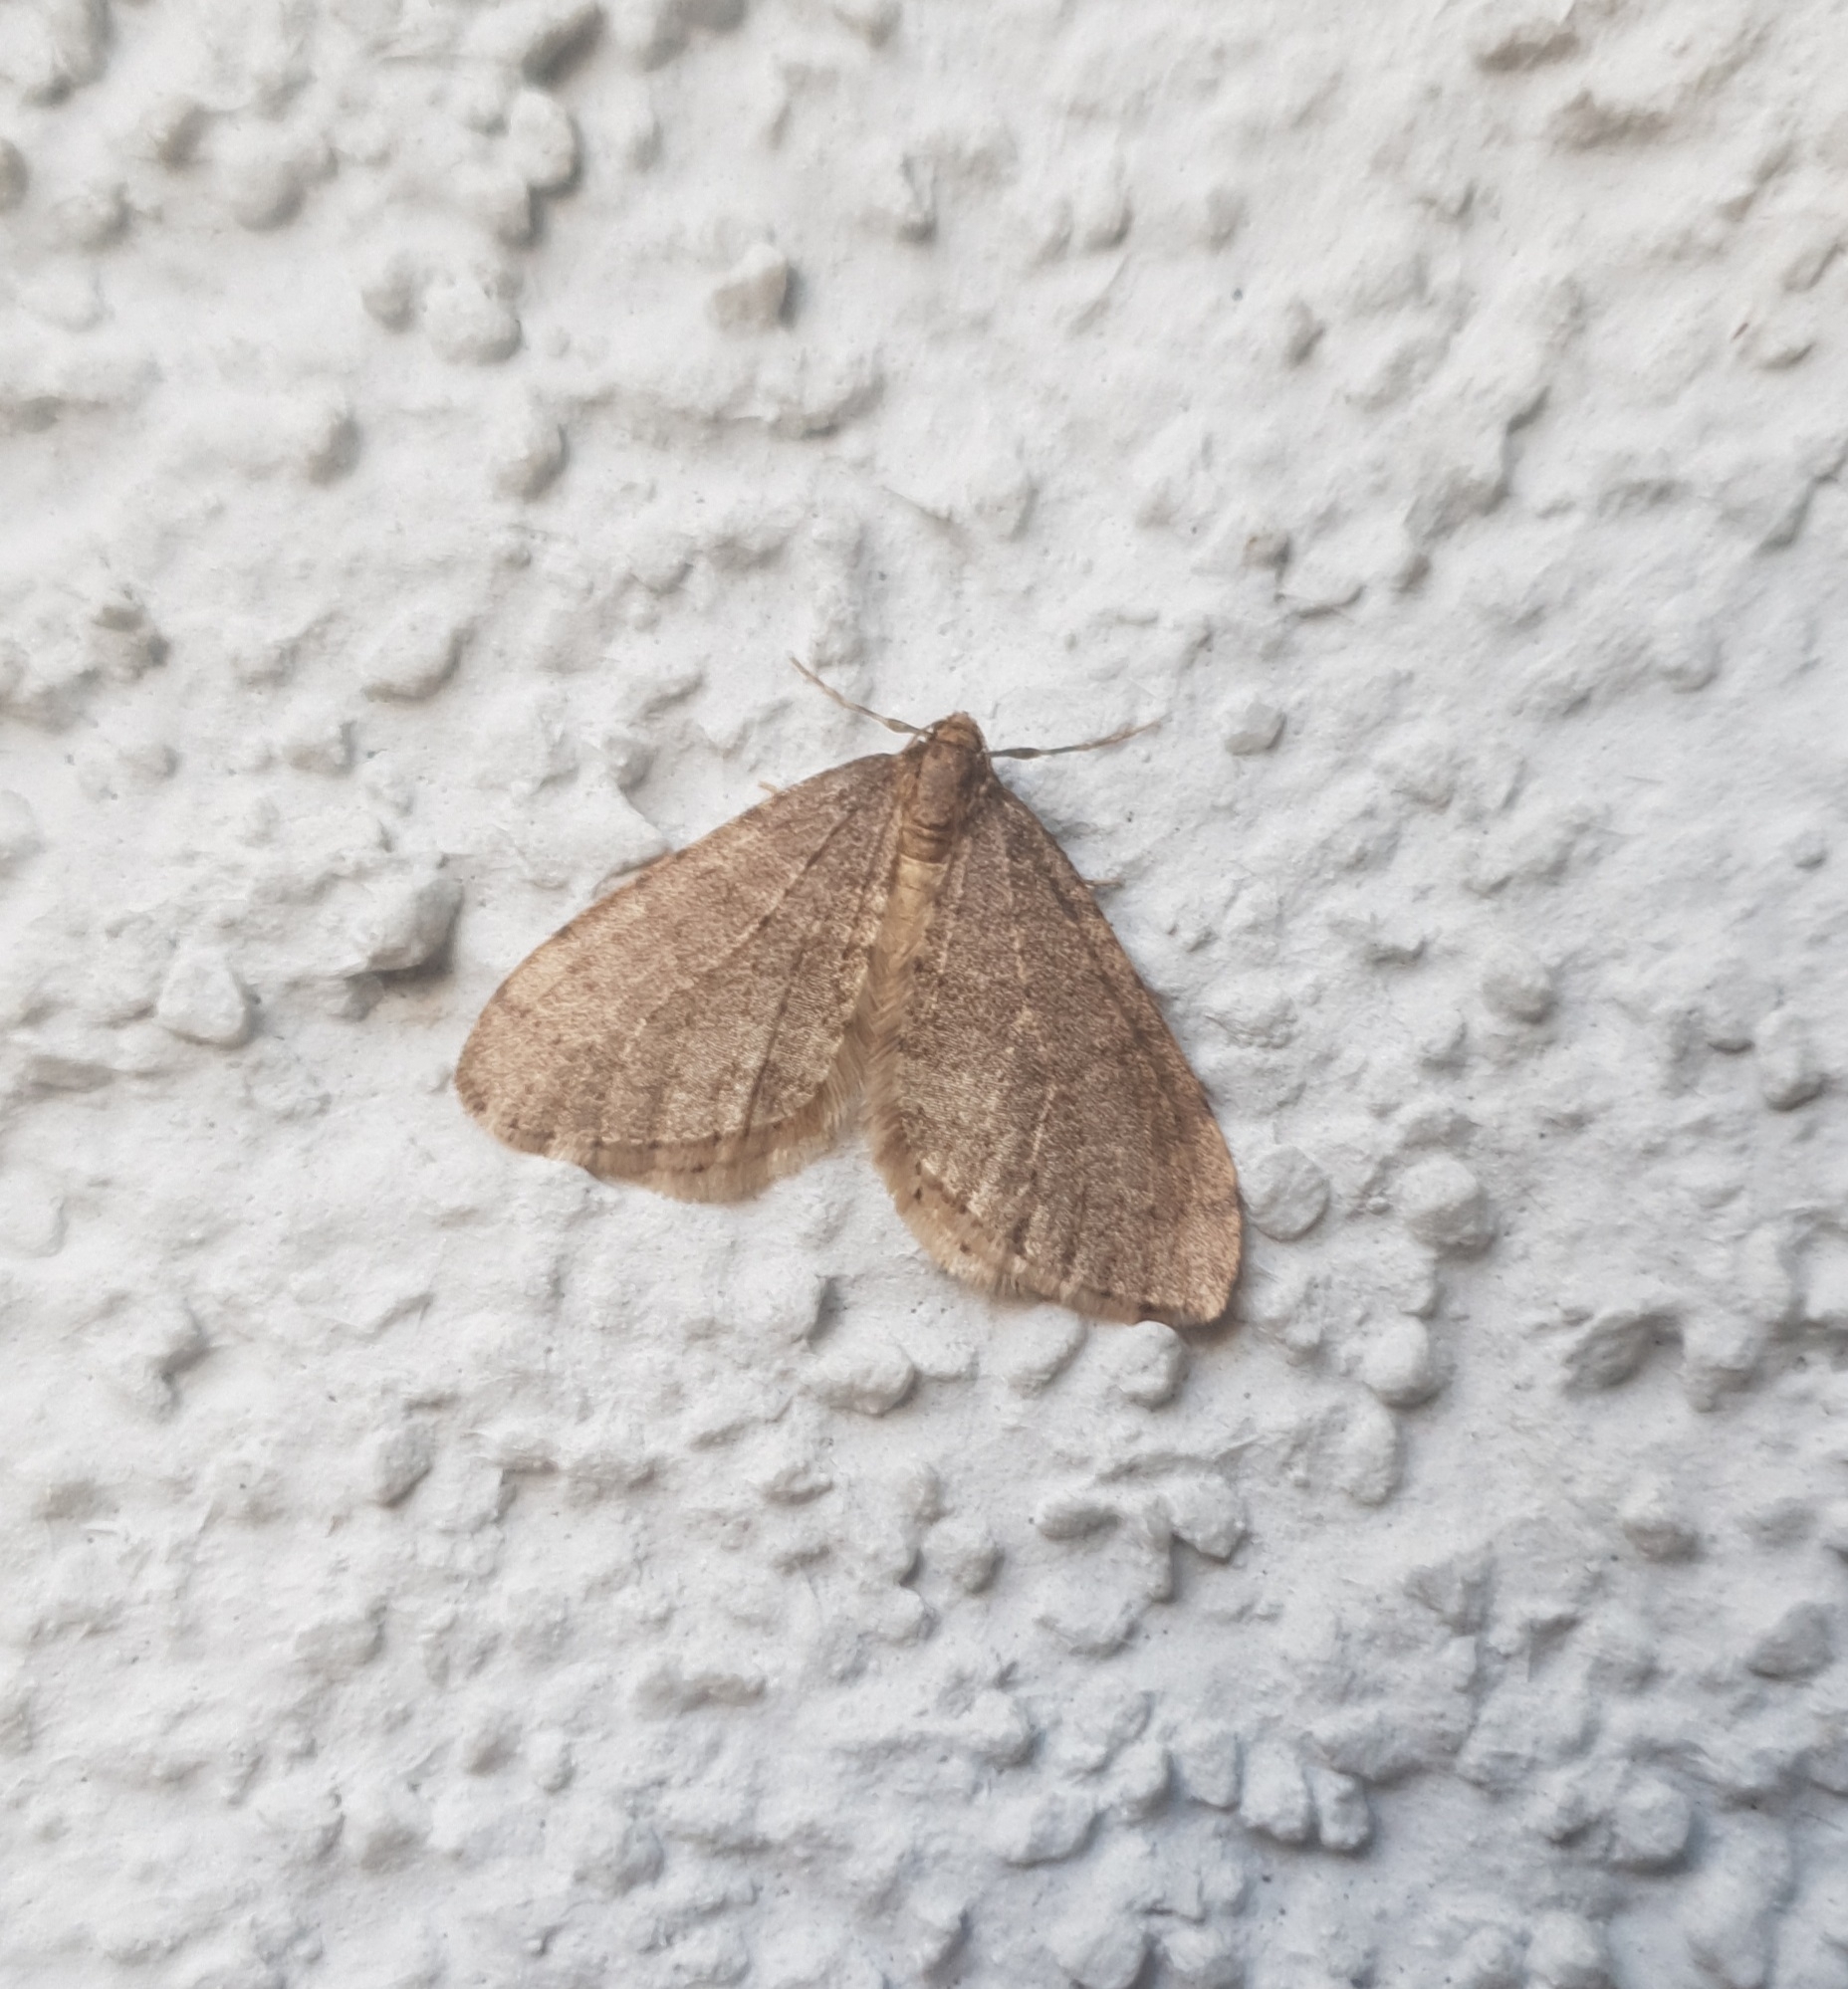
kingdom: Animalia
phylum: Arthropoda
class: Insecta
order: Lepidoptera
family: Geometridae
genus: Operophtera
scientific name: Operophtera brumata
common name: Winter moth
